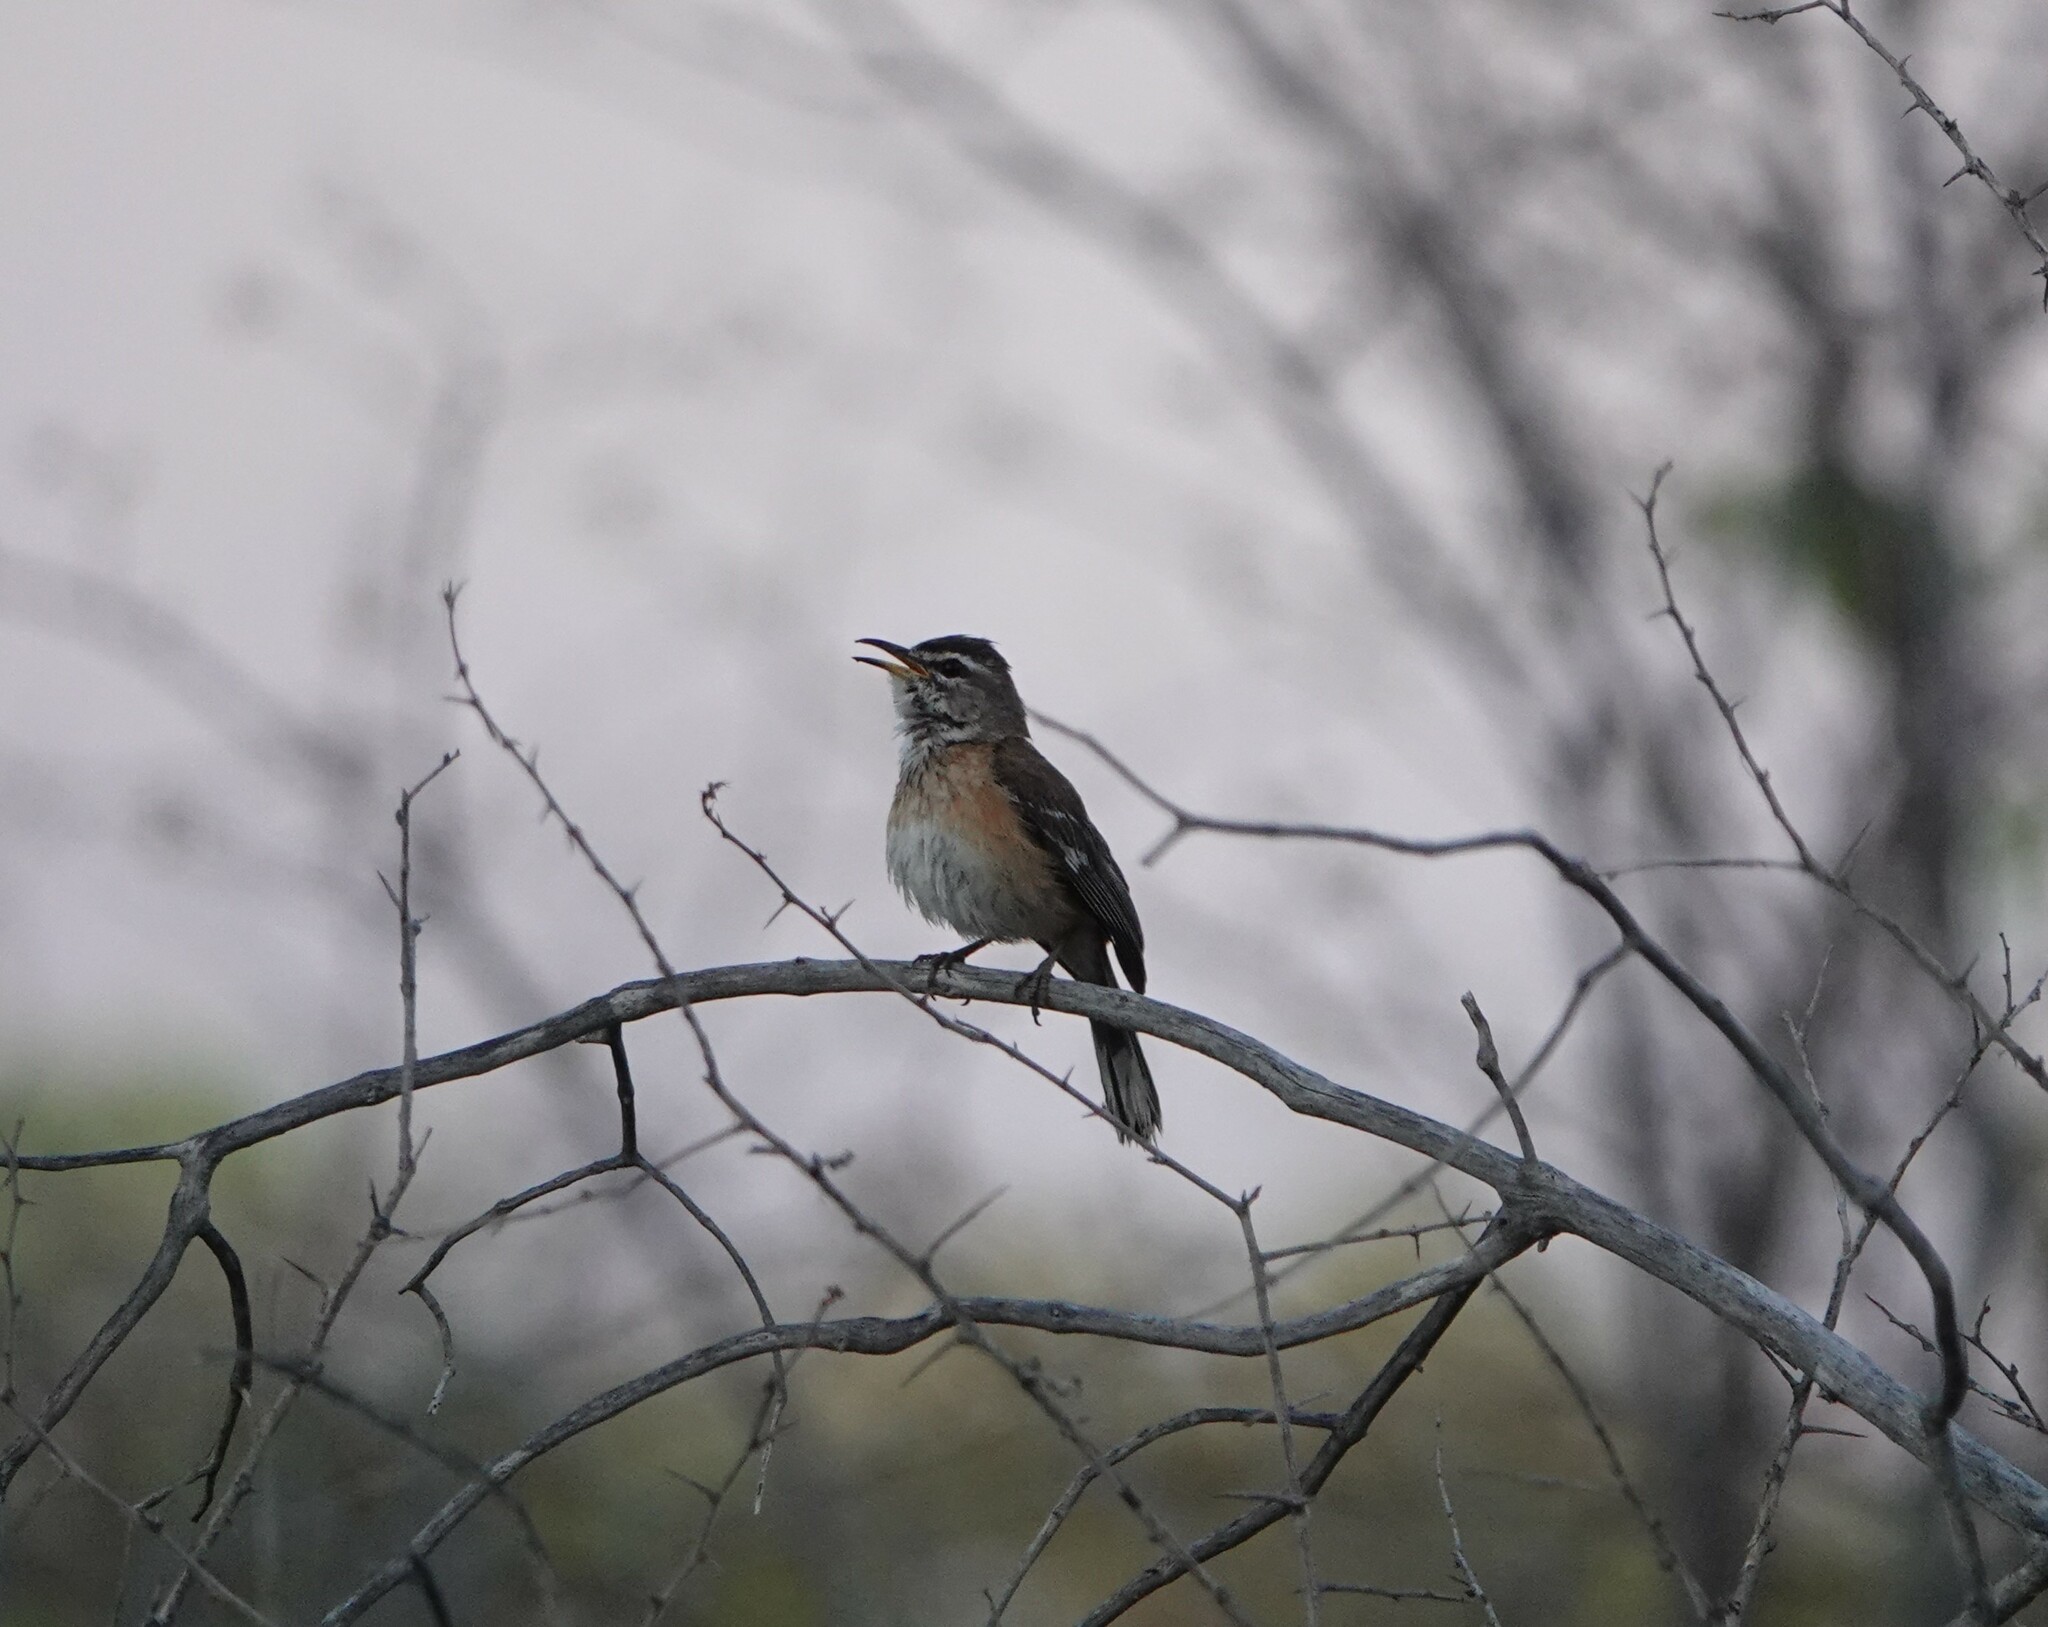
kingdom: Animalia
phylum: Chordata
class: Aves
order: Passeriformes
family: Muscicapidae
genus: Erythropygia
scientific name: Erythropygia leucophrys
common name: White-browed scrub robin
